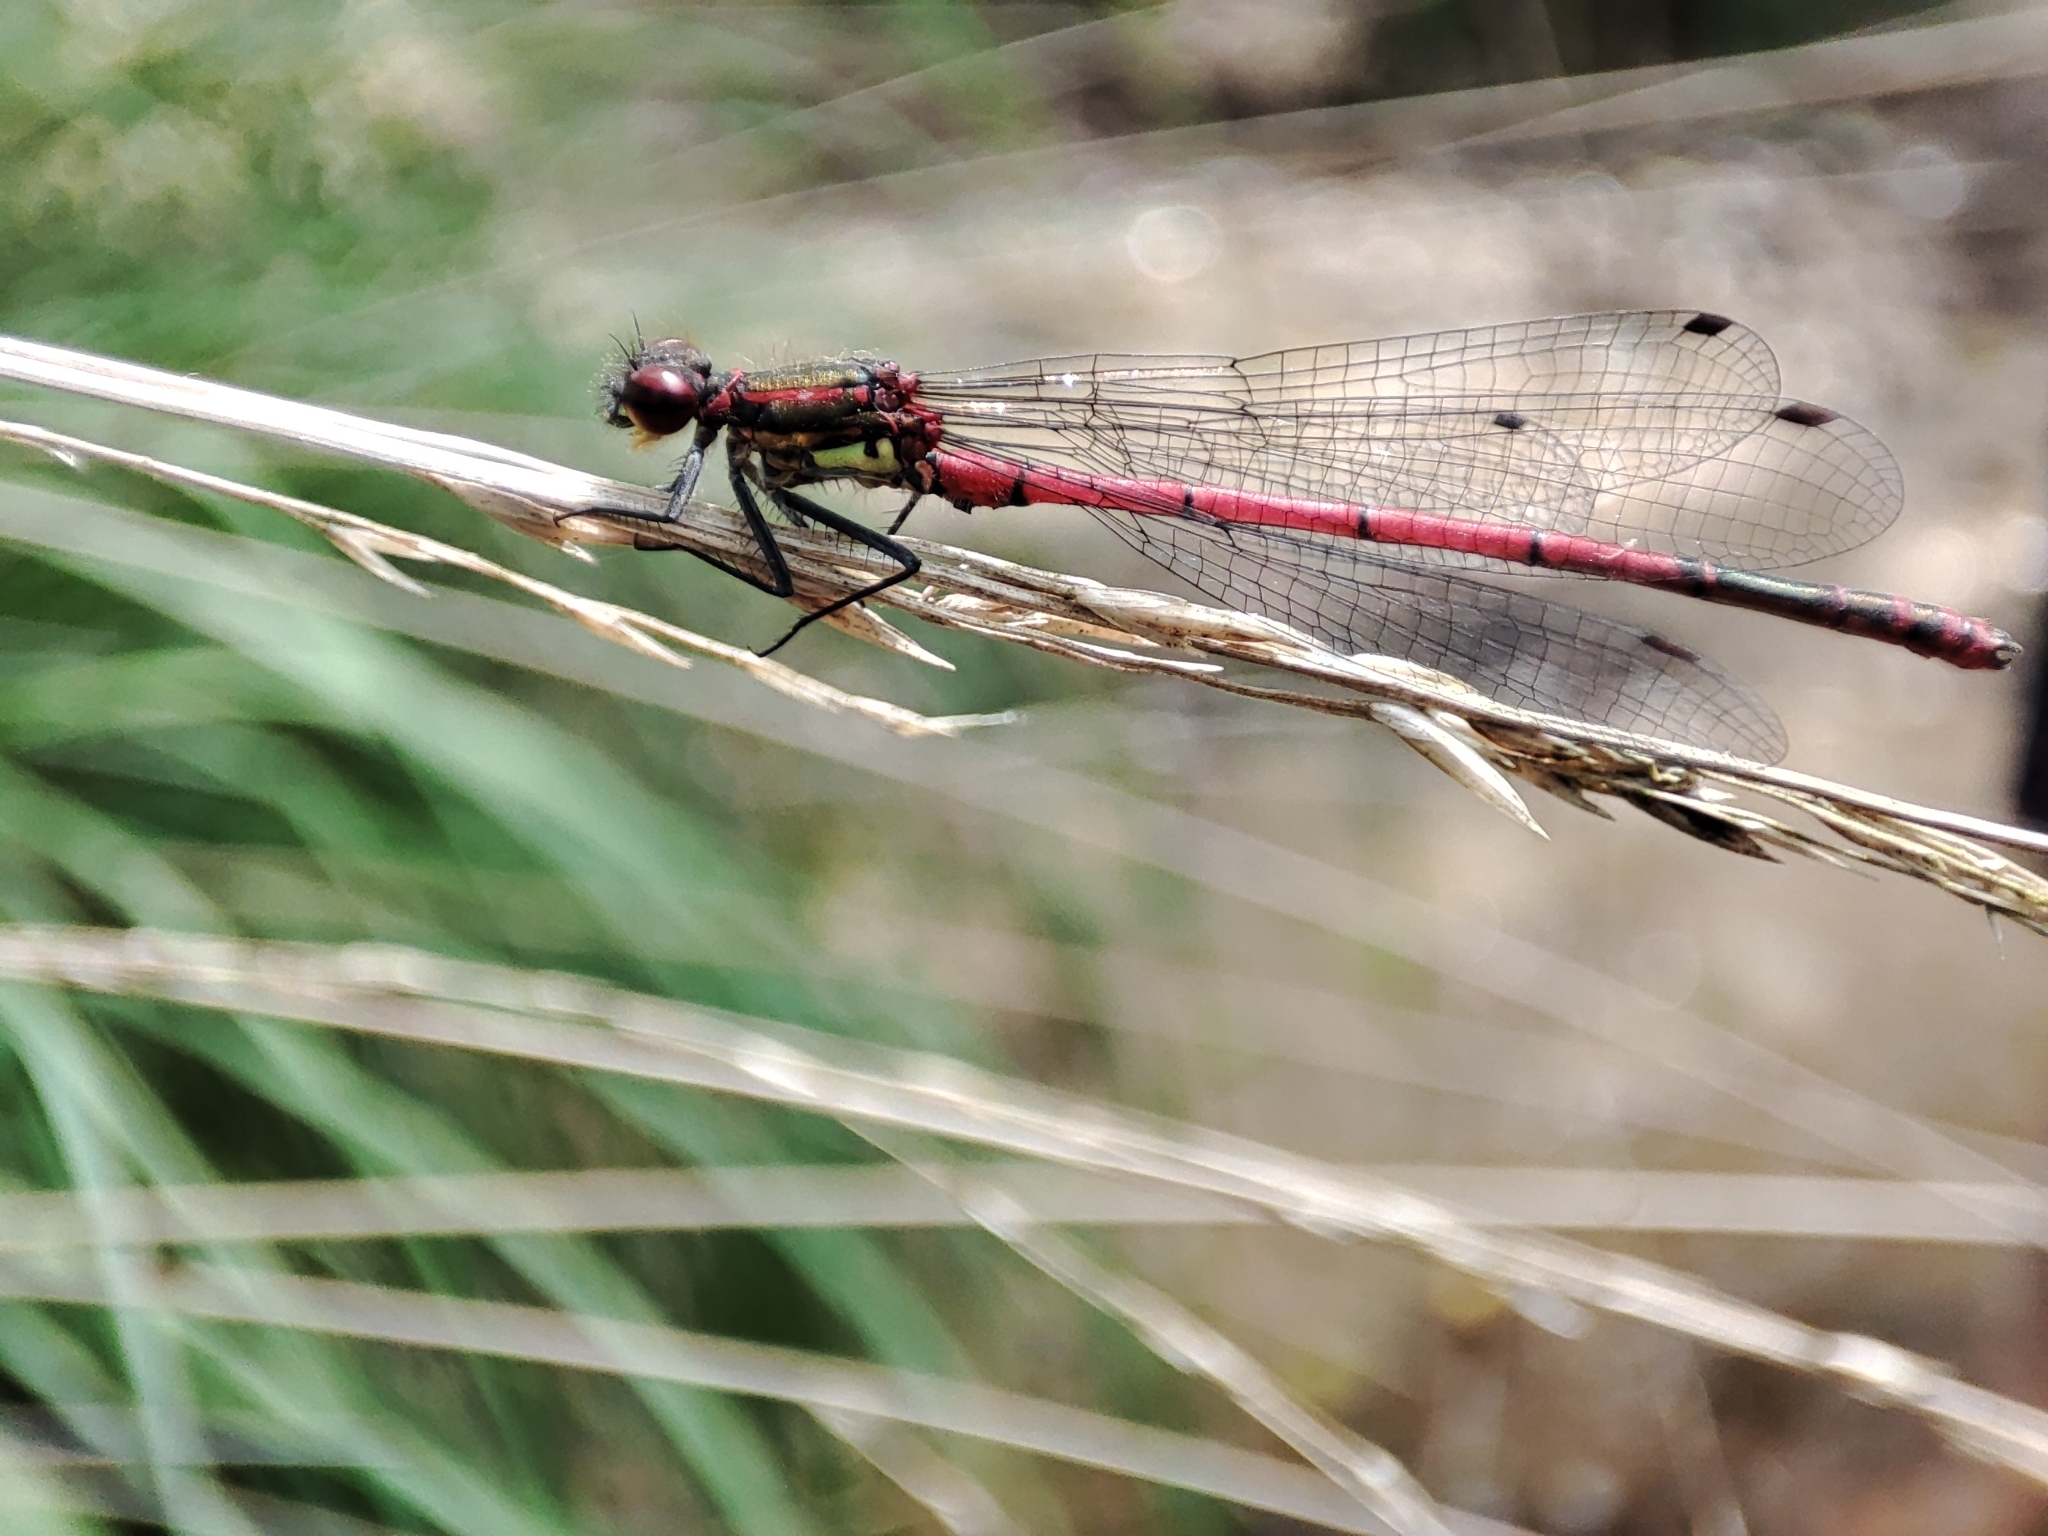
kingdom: Animalia
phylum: Arthropoda
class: Insecta
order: Odonata
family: Coenagrionidae
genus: Pyrrhosoma
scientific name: Pyrrhosoma nymphula
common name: Large red damsel
